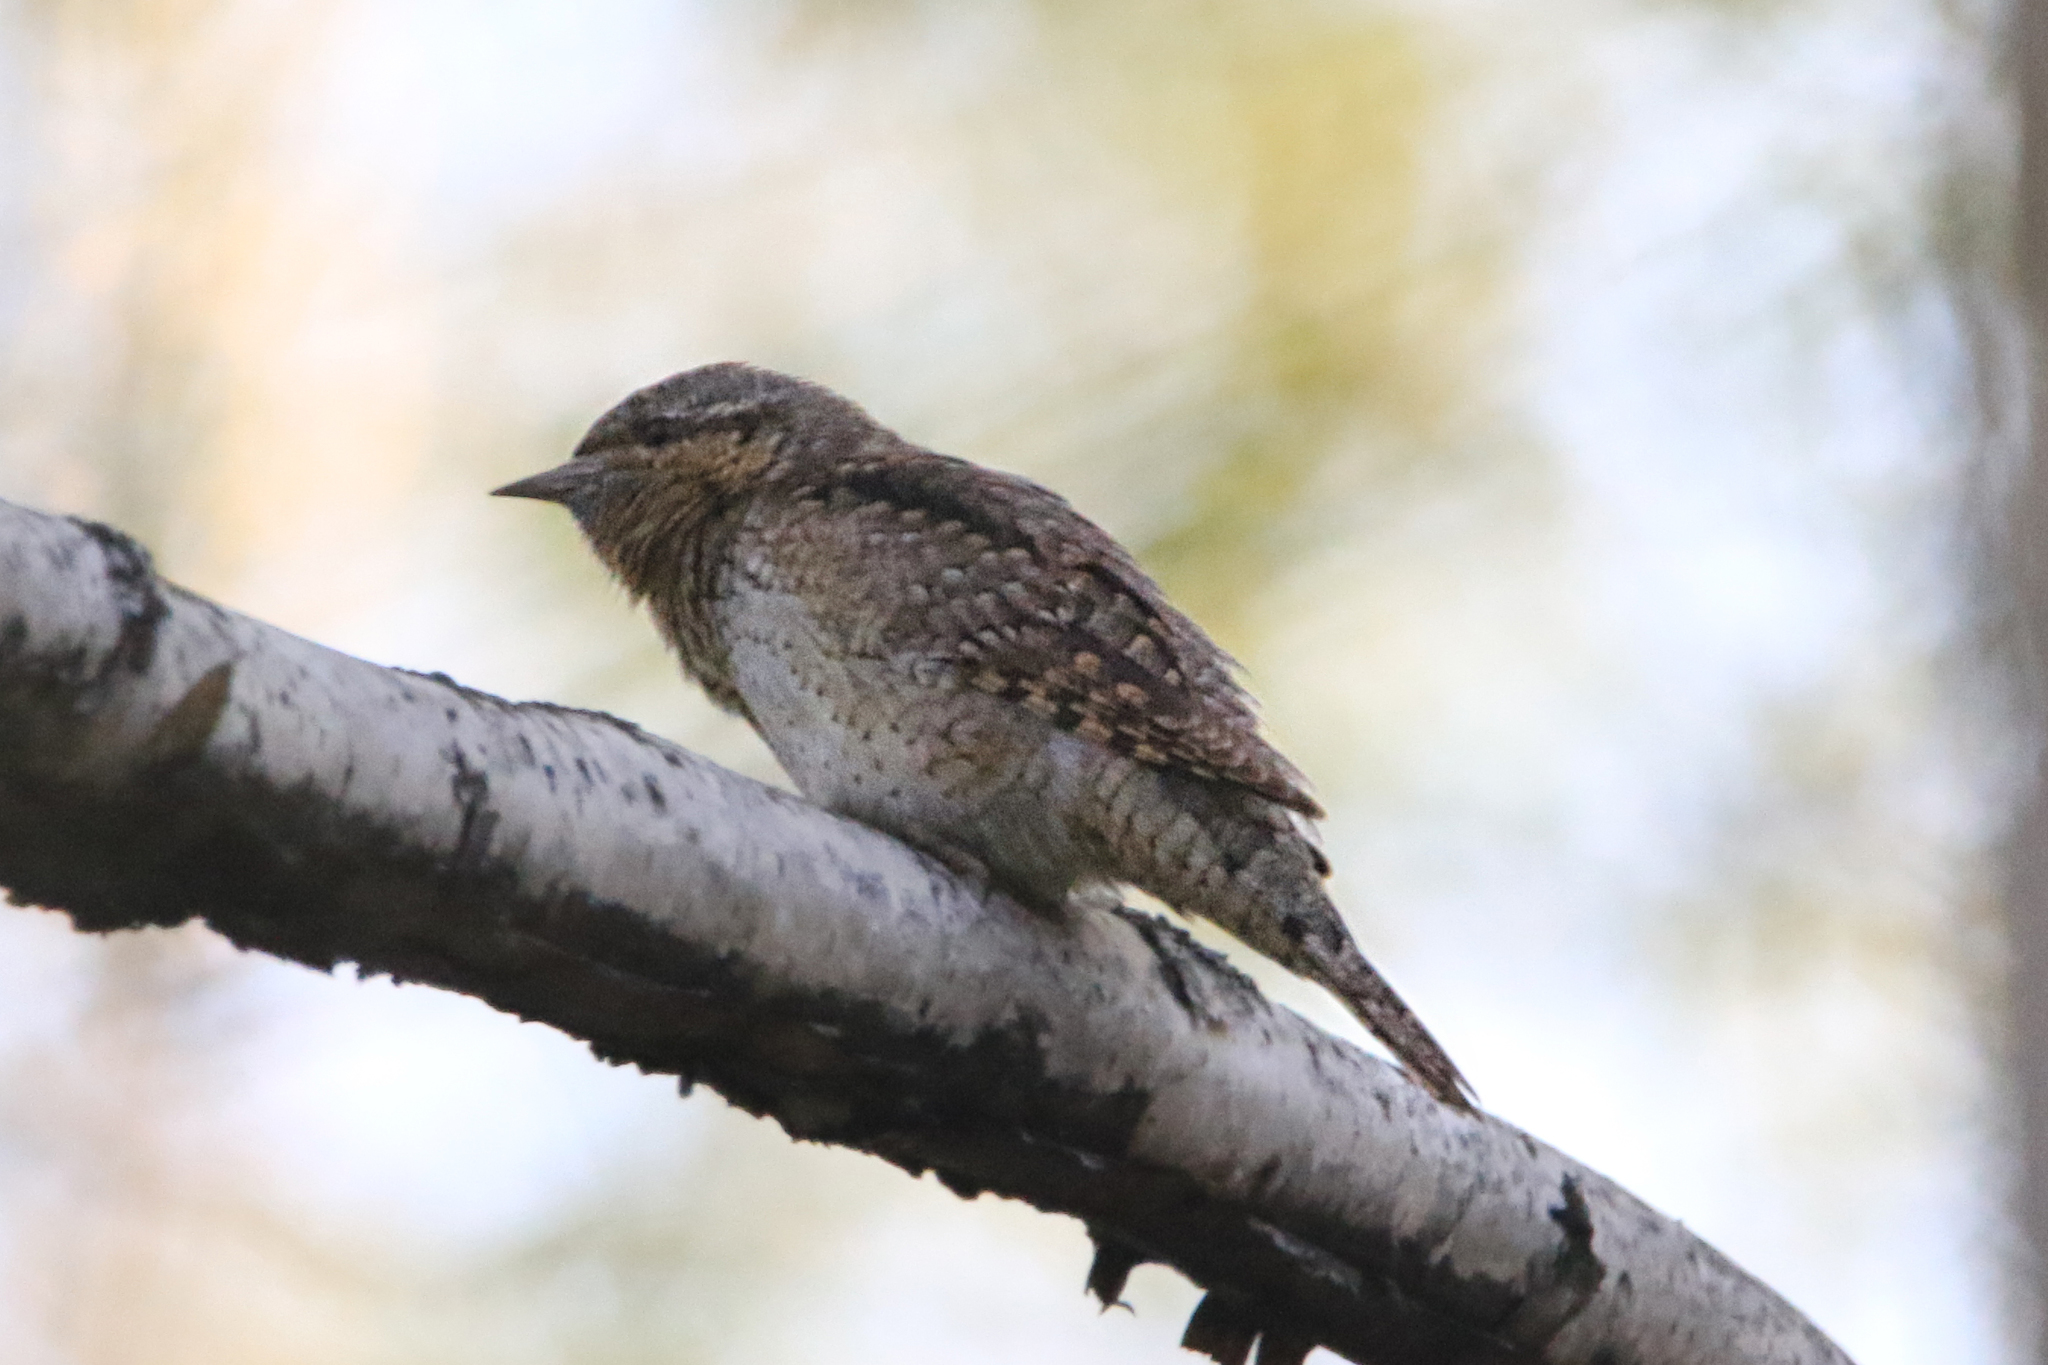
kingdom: Animalia
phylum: Chordata
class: Aves
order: Piciformes
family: Picidae
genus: Jynx
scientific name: Jynx torquilla
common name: Eurasian wryneck
